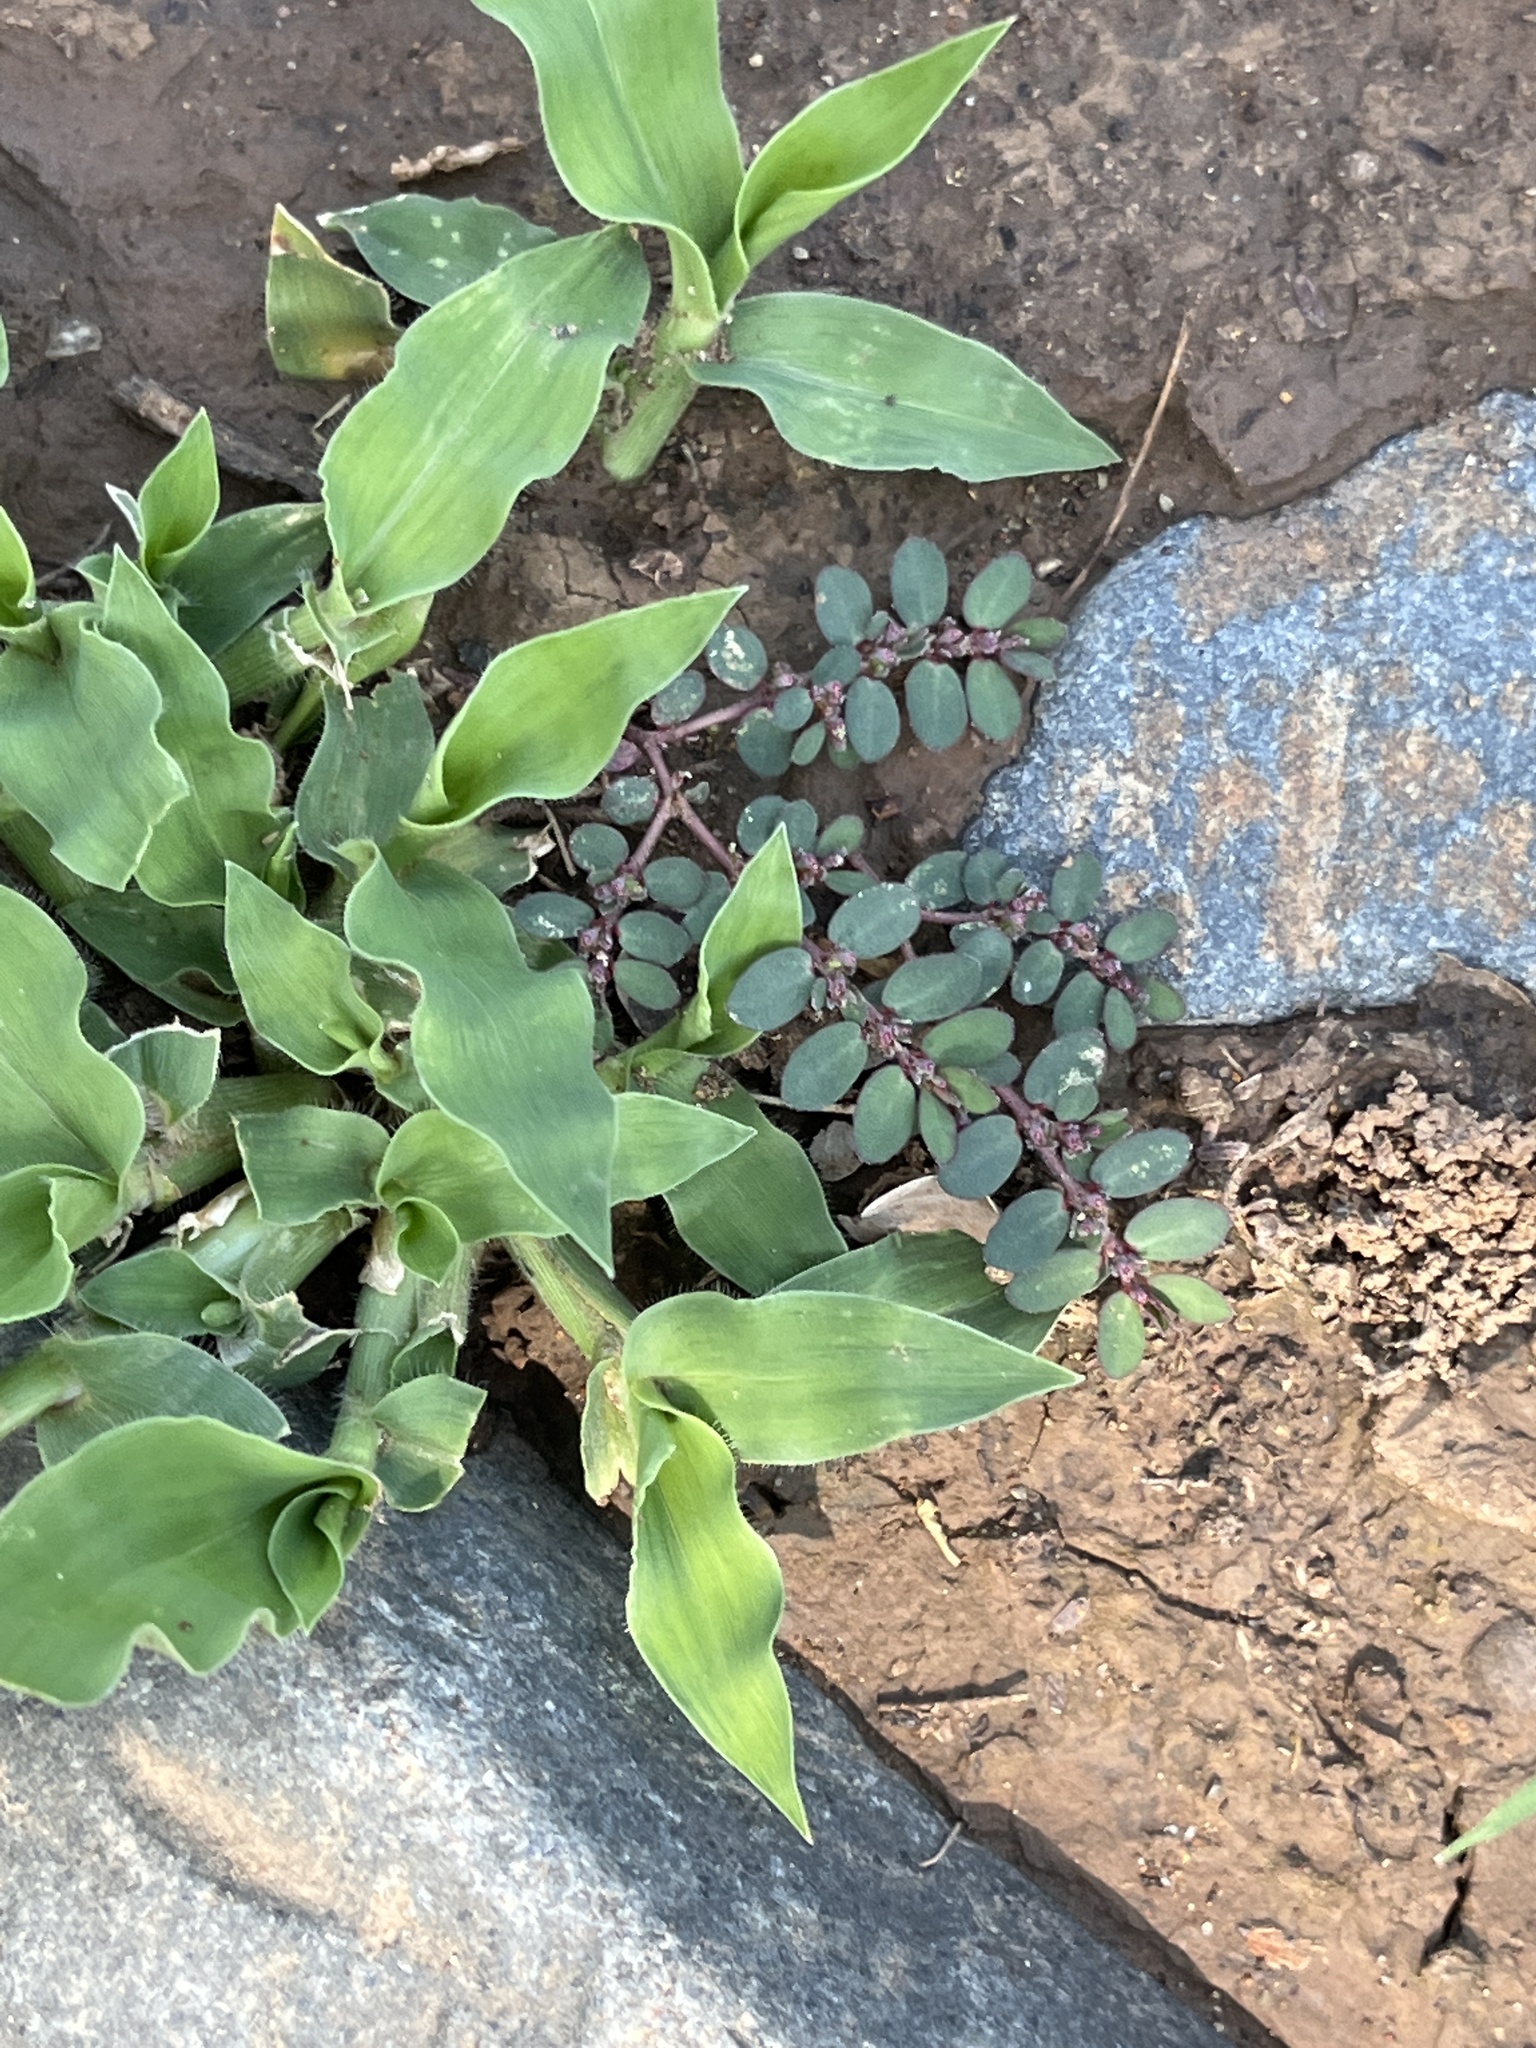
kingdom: Plantae
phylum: Tracheophyta
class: Magnoliopsida
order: Malpighiales
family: Euphorbiaceae
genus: Euphorbia
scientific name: Euphorbia prostrata
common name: Prostrate sandmat
